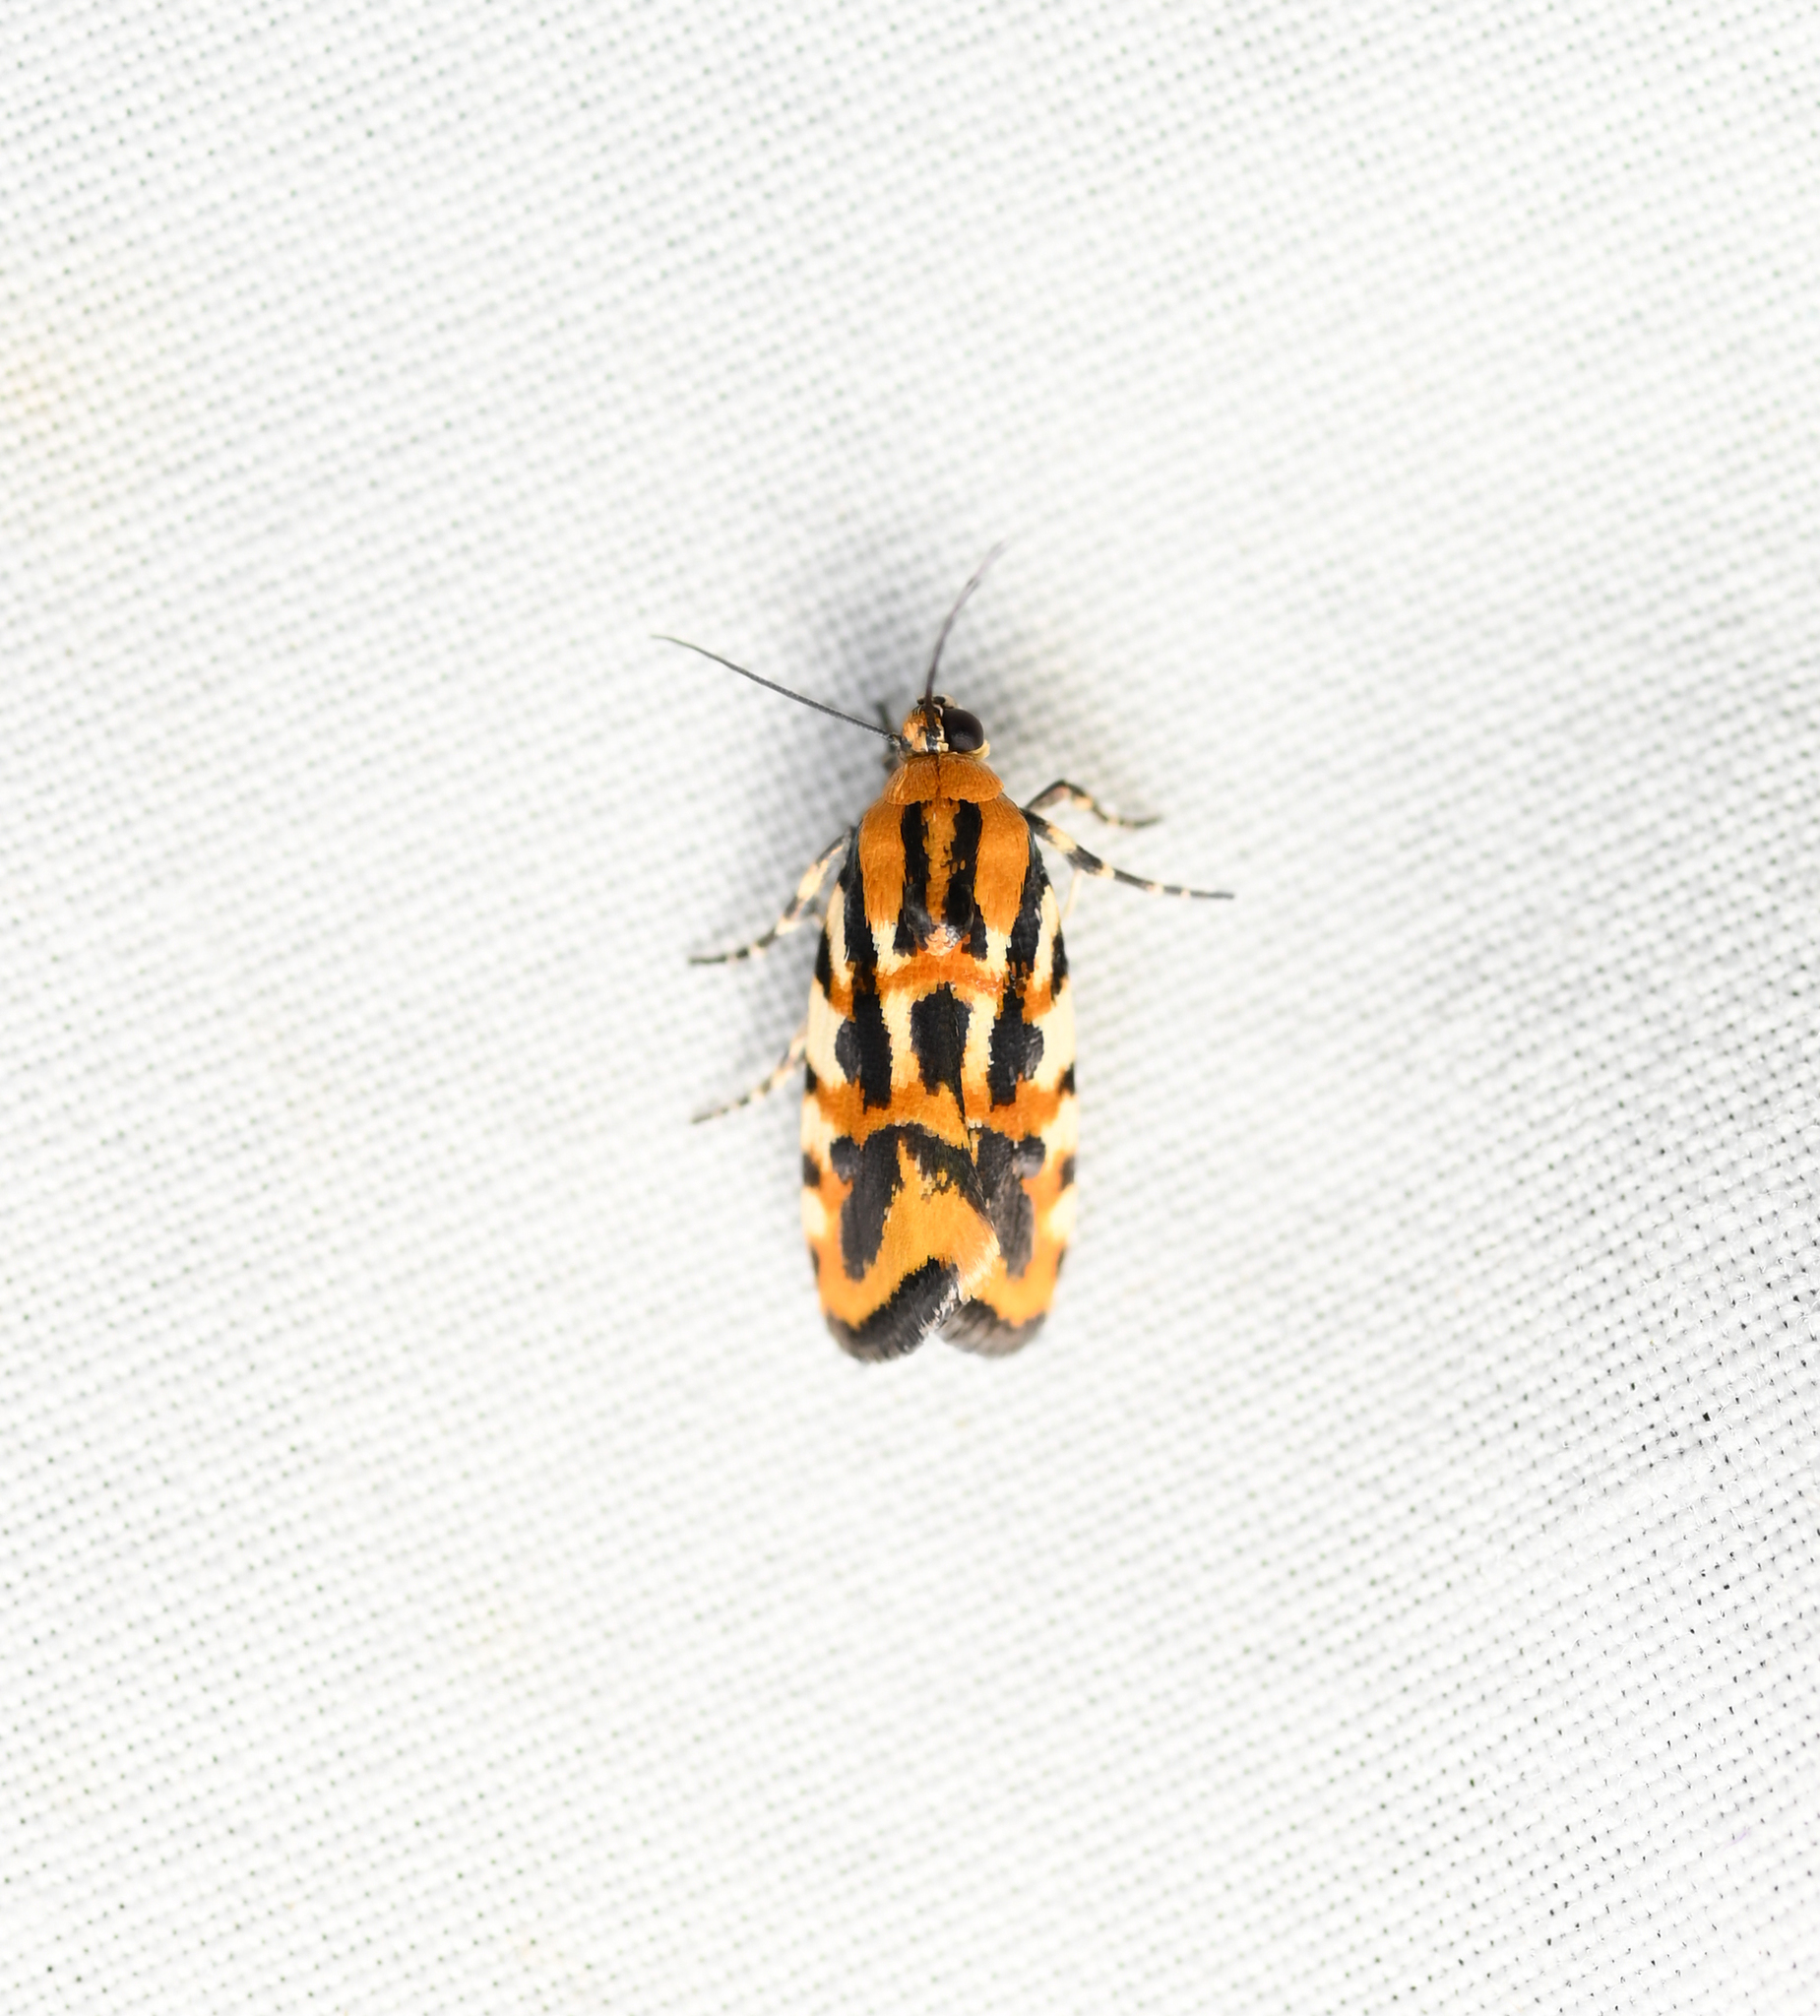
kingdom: Animalia
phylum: Arthropoda
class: Insecta
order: Lepidoptera
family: Noctuidae
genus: Acontia
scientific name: Acontia leo
